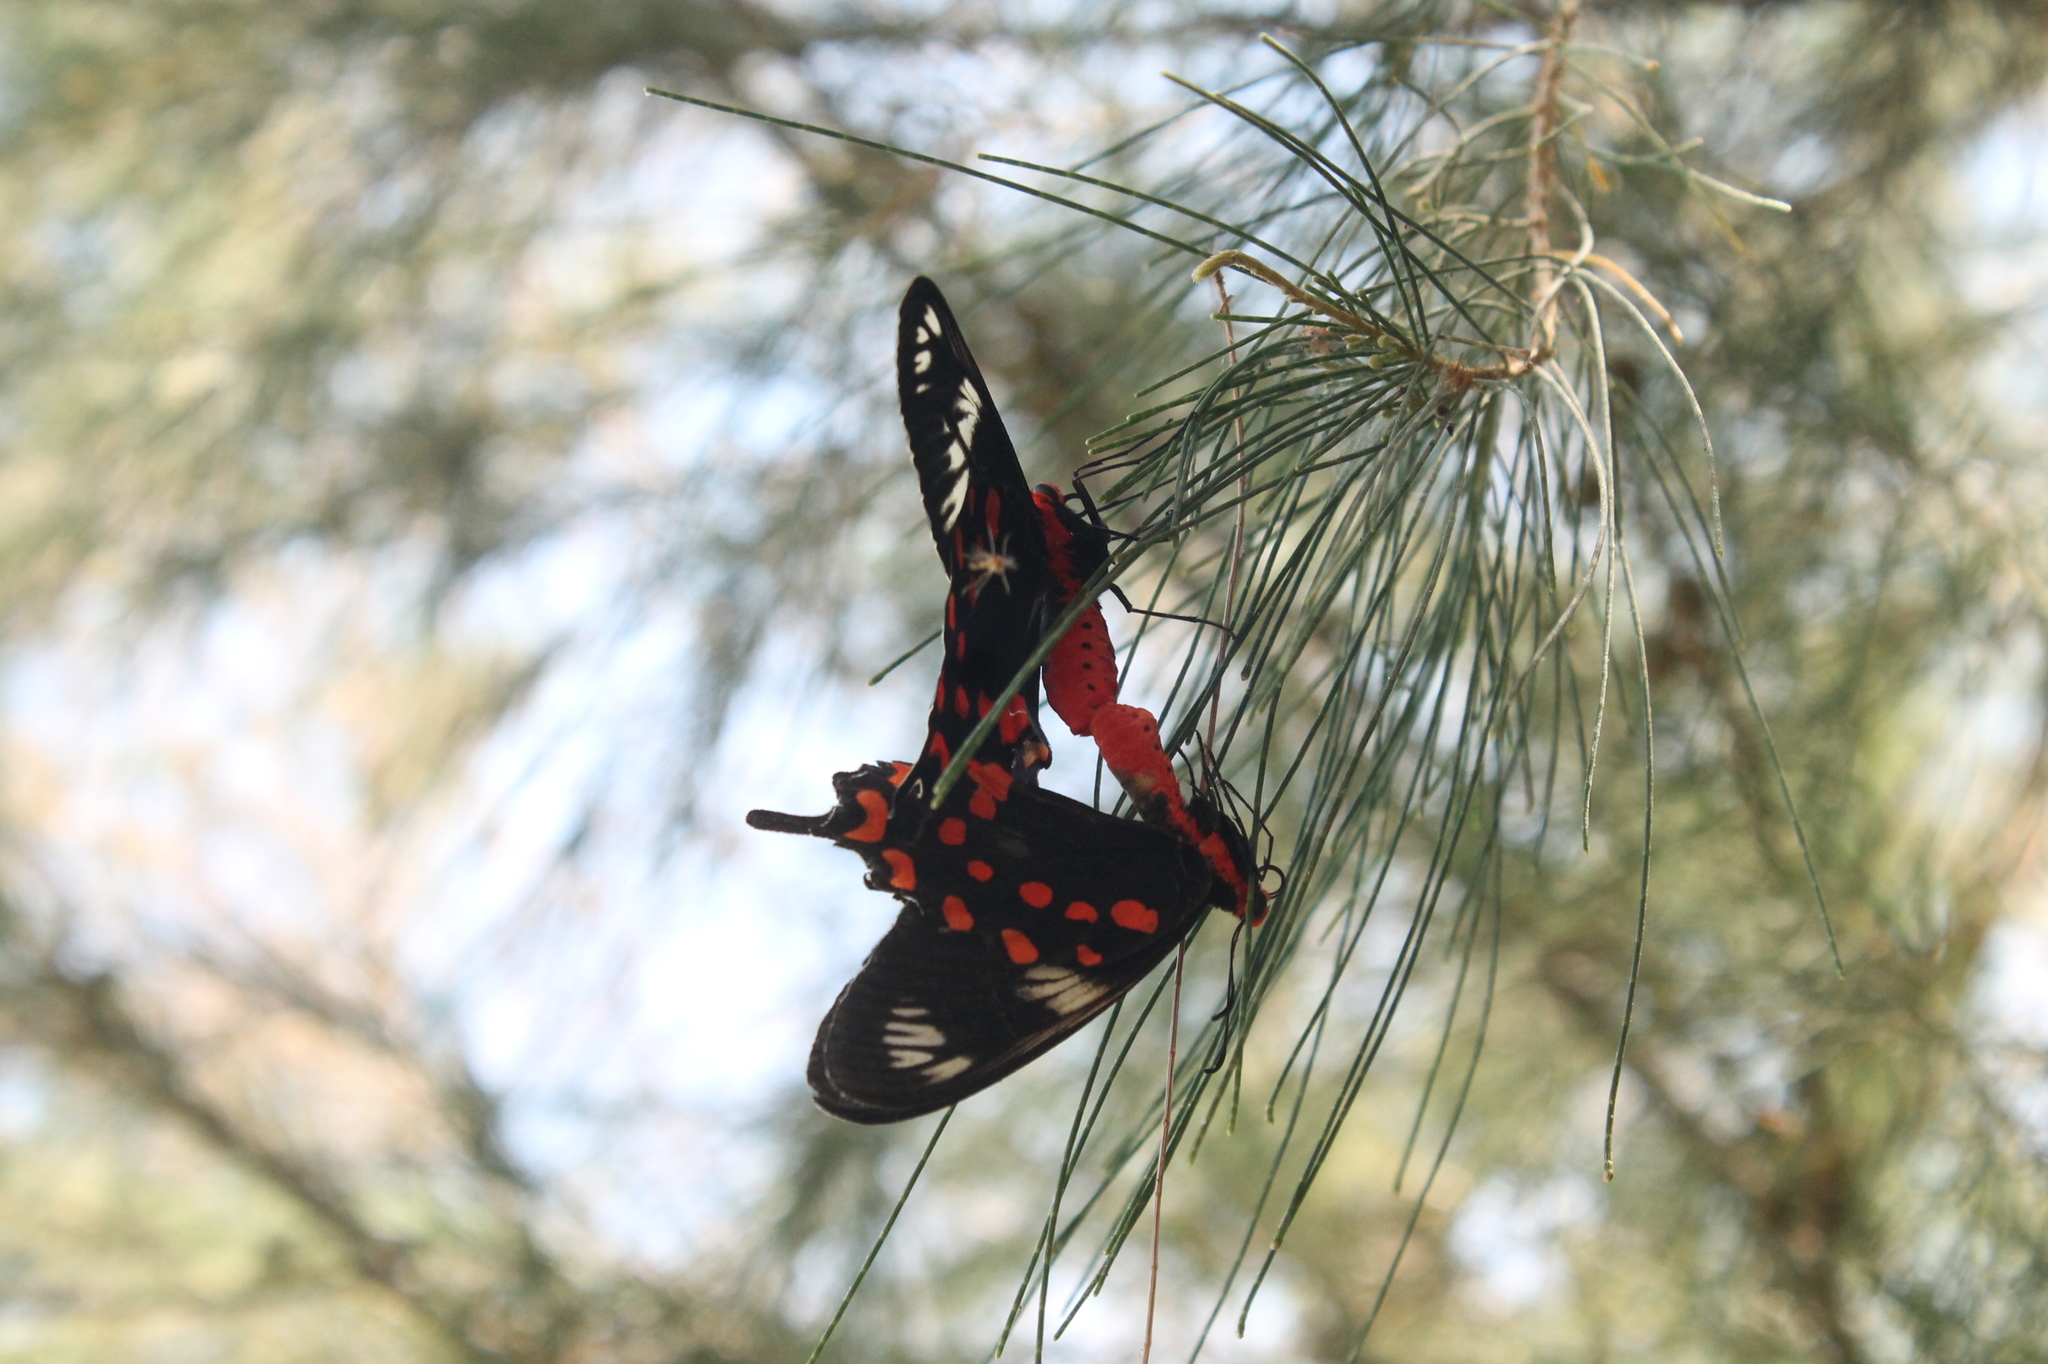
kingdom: Animalia
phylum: Arthropoda
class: Insecta
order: Lepidoptera
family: Papilionidae
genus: Pachliopta
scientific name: Pachliopta hector
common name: Crimson rose
